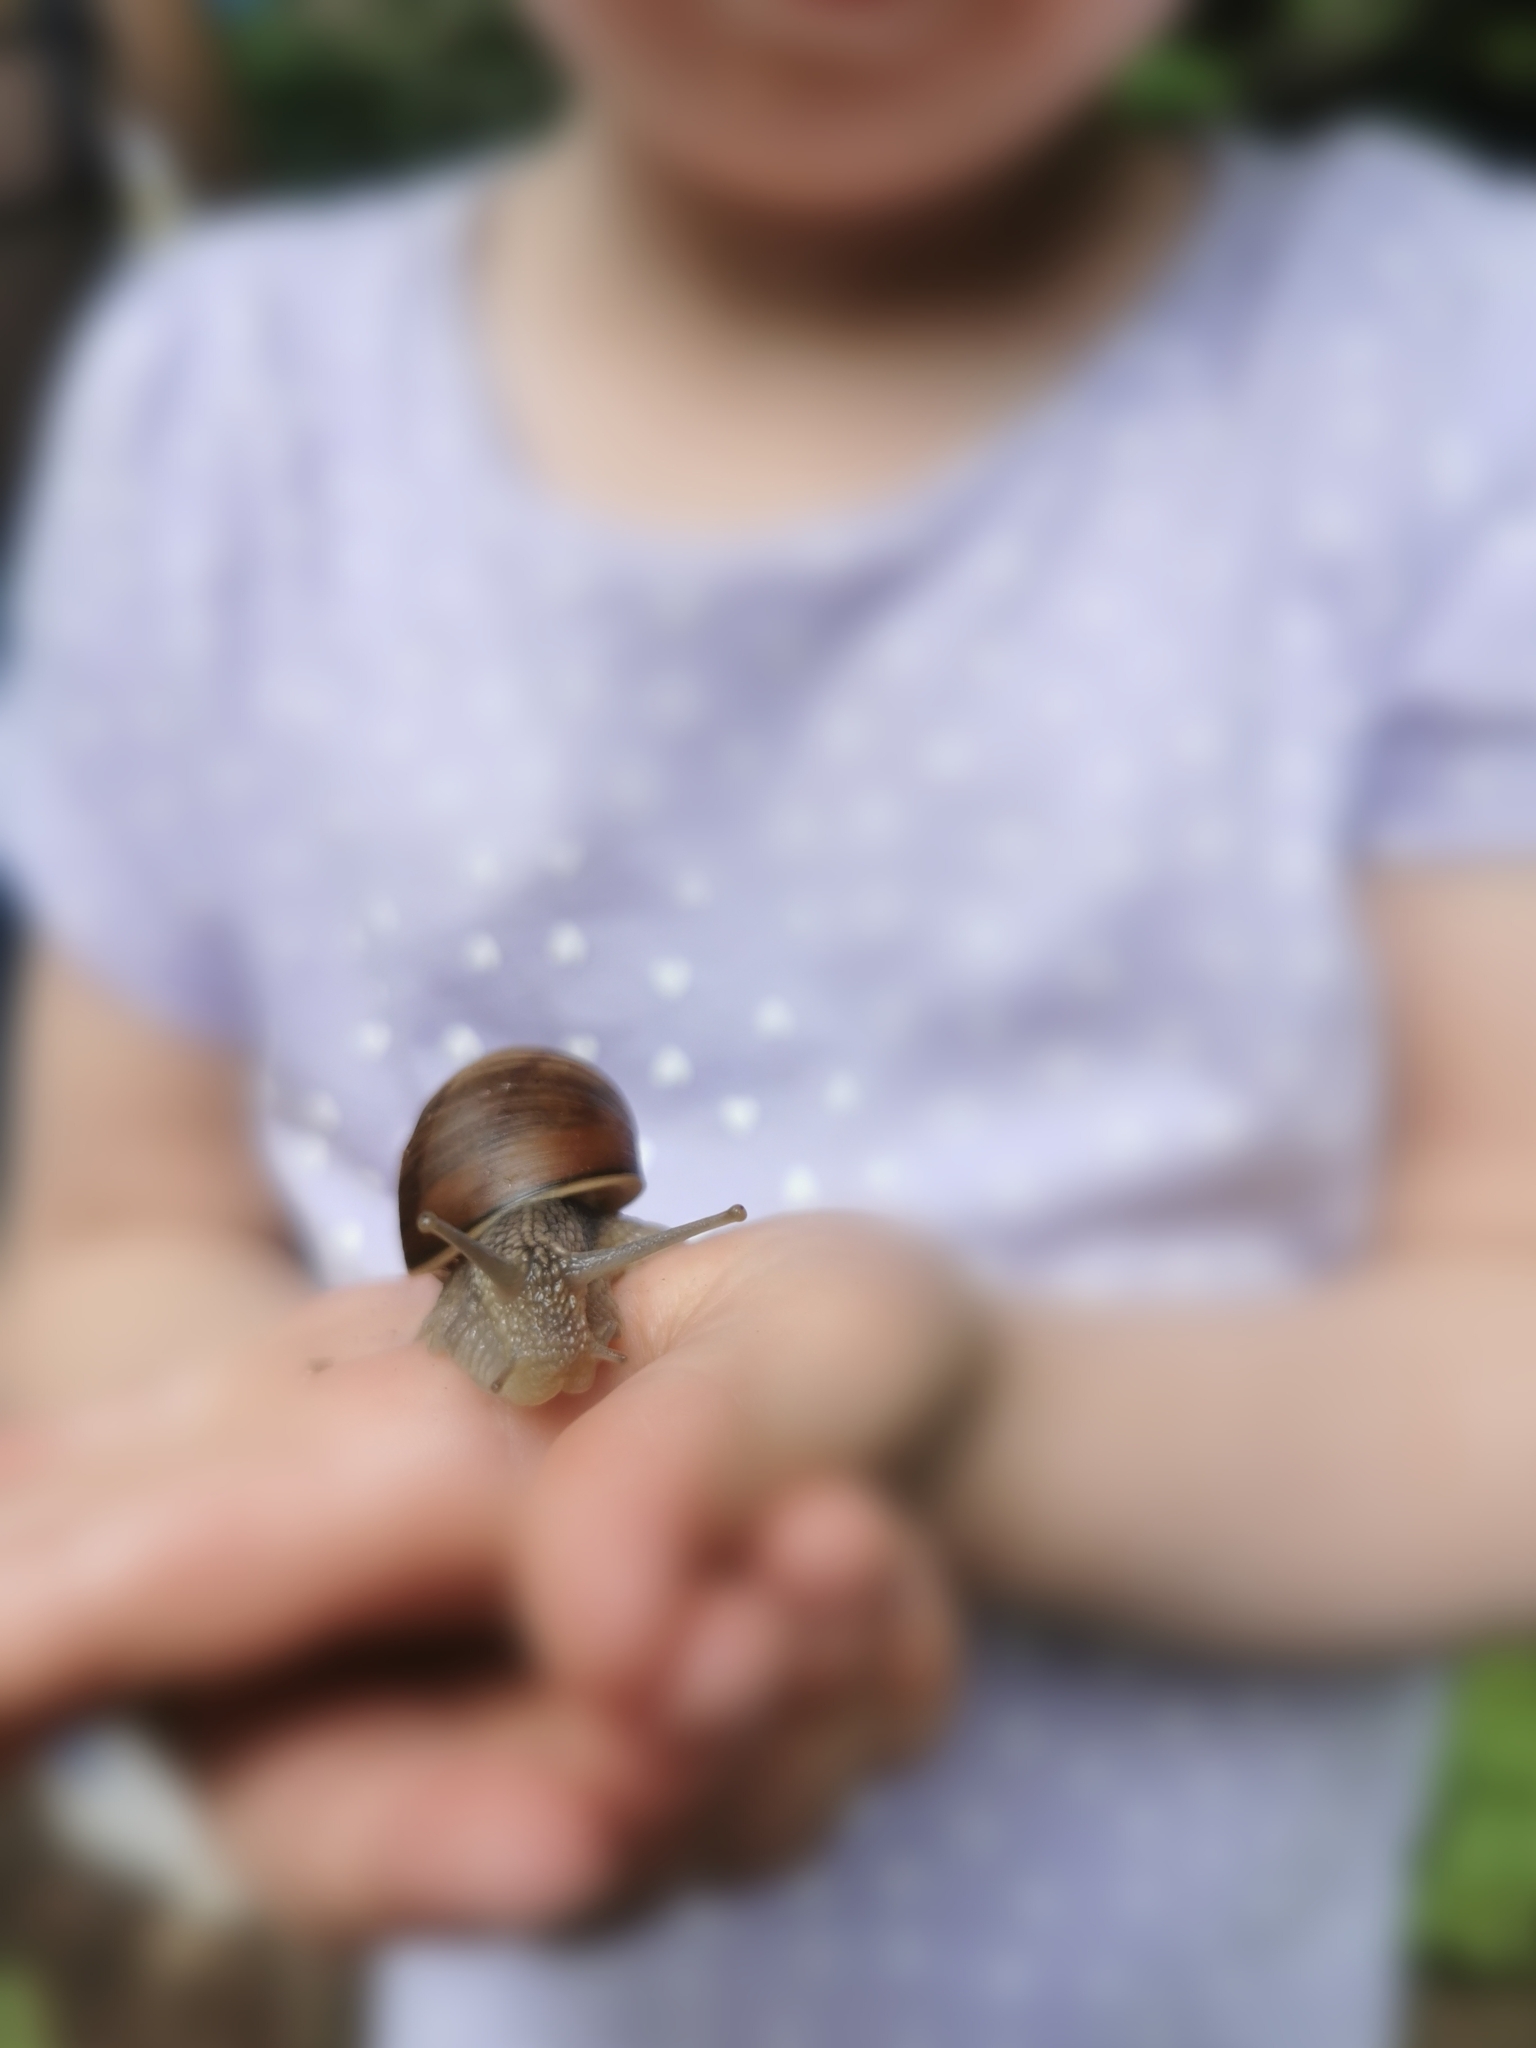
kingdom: Animalia
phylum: Mollusca
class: Gastropoda
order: Stylommatophora
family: Helicidae
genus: Helix
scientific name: Helix pomatia
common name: Roman snail
